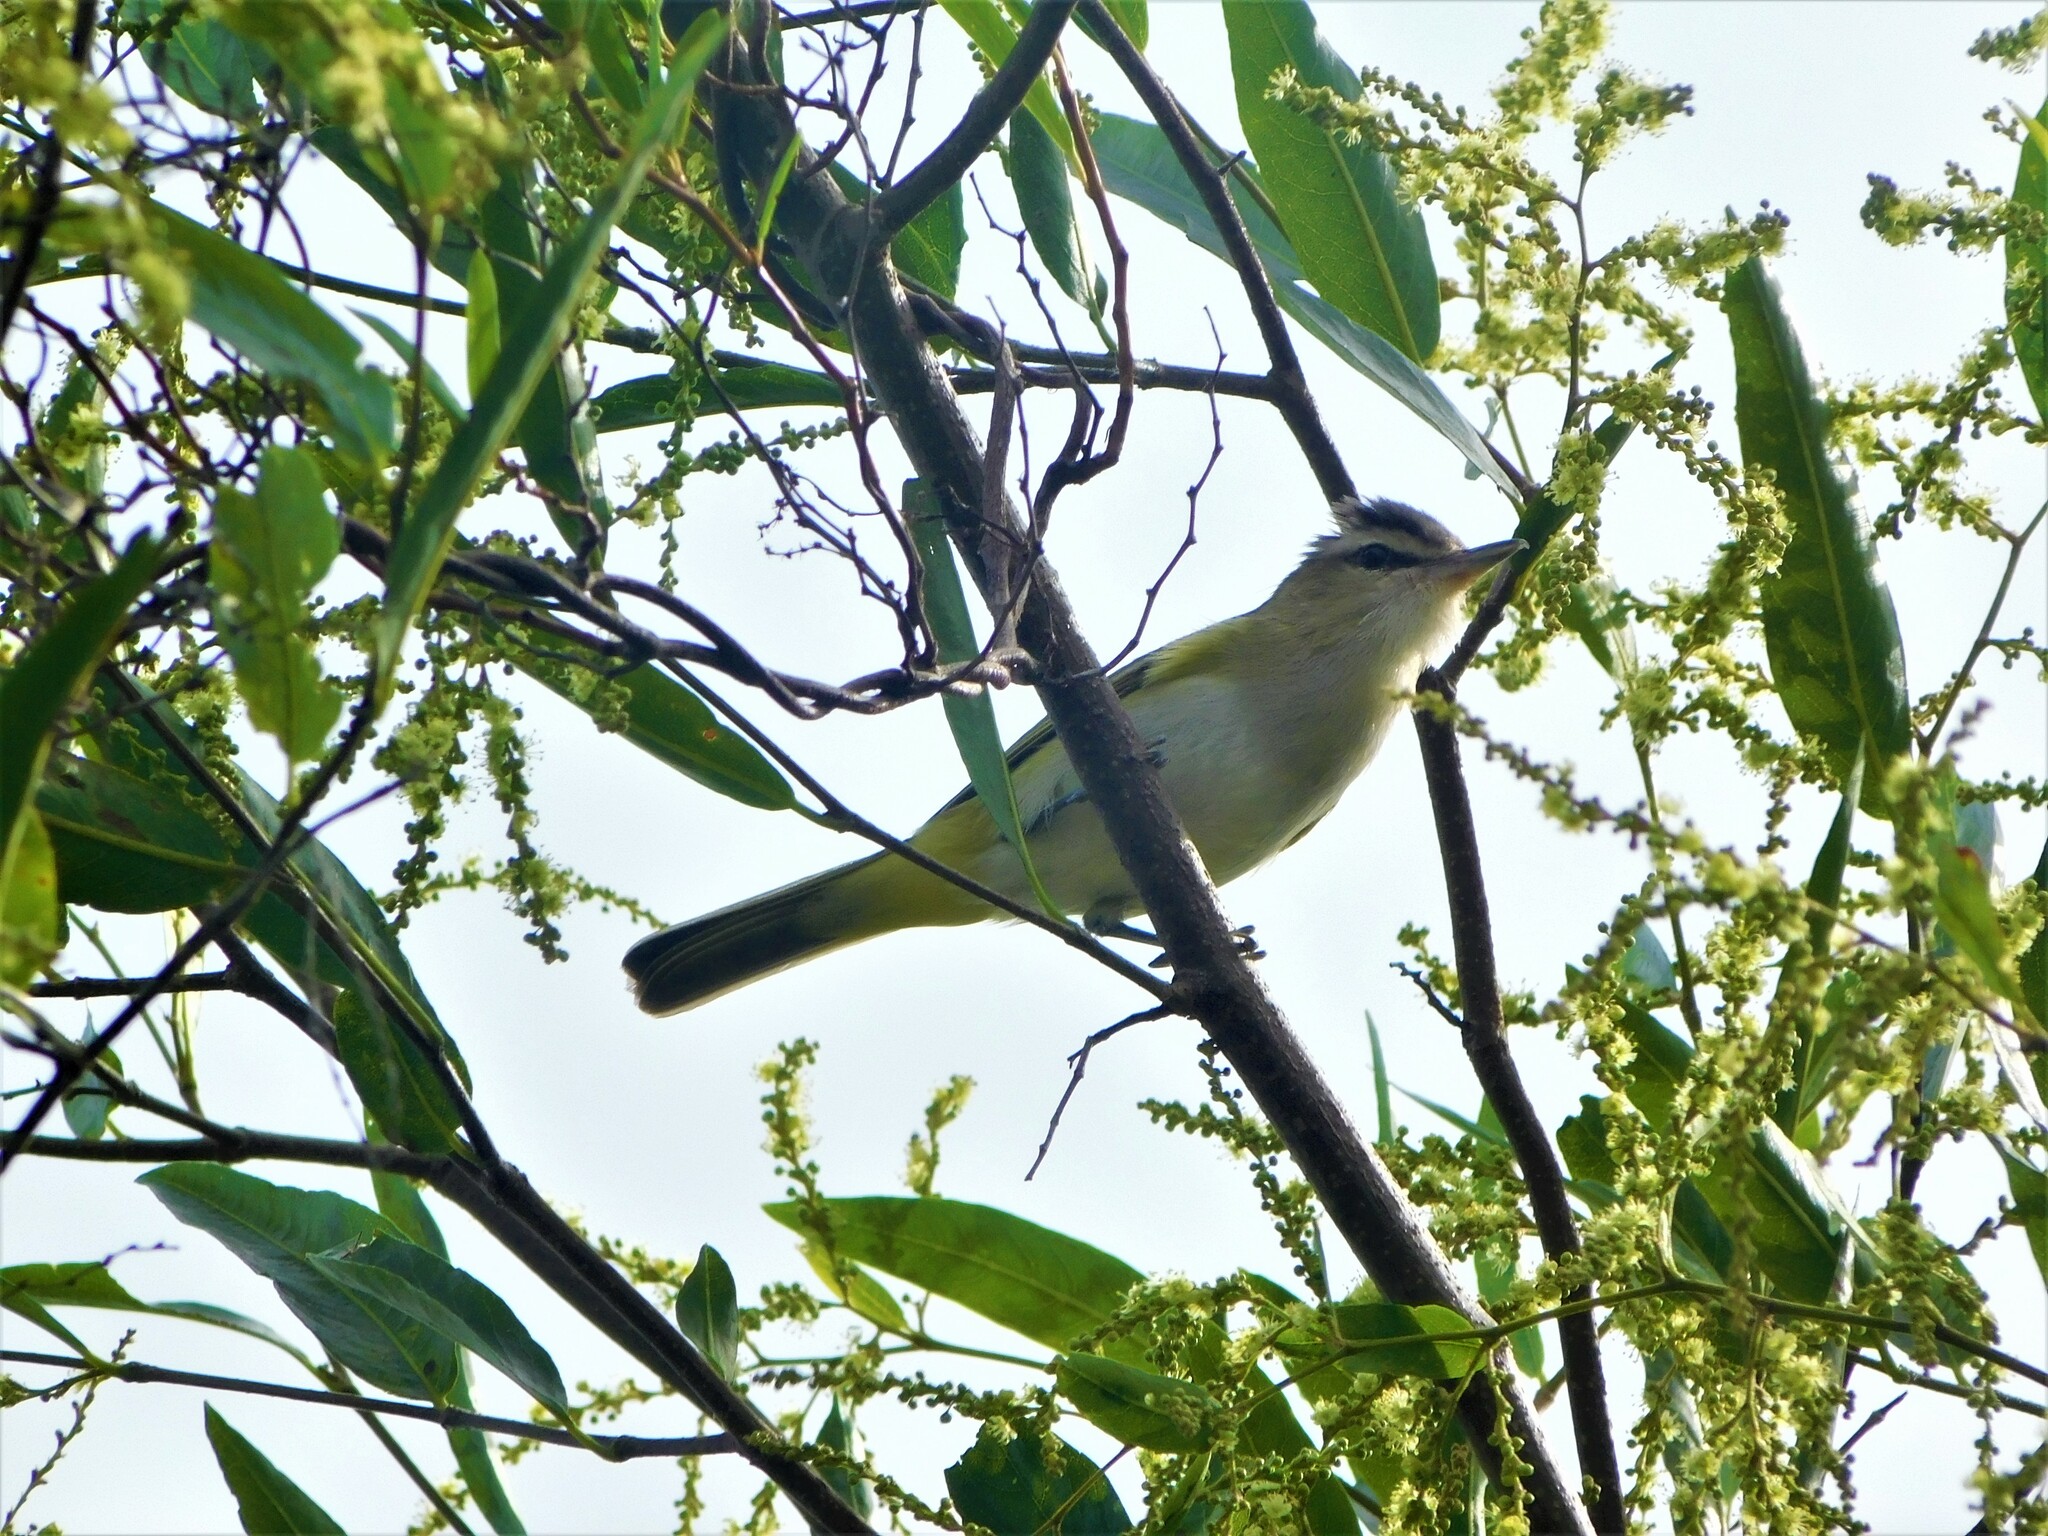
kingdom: Animalia
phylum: Chordata
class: Aves
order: Passeriformes
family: Vireonidae
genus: Vireo
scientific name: Vireo olivaceus
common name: Red-eyed vireo
